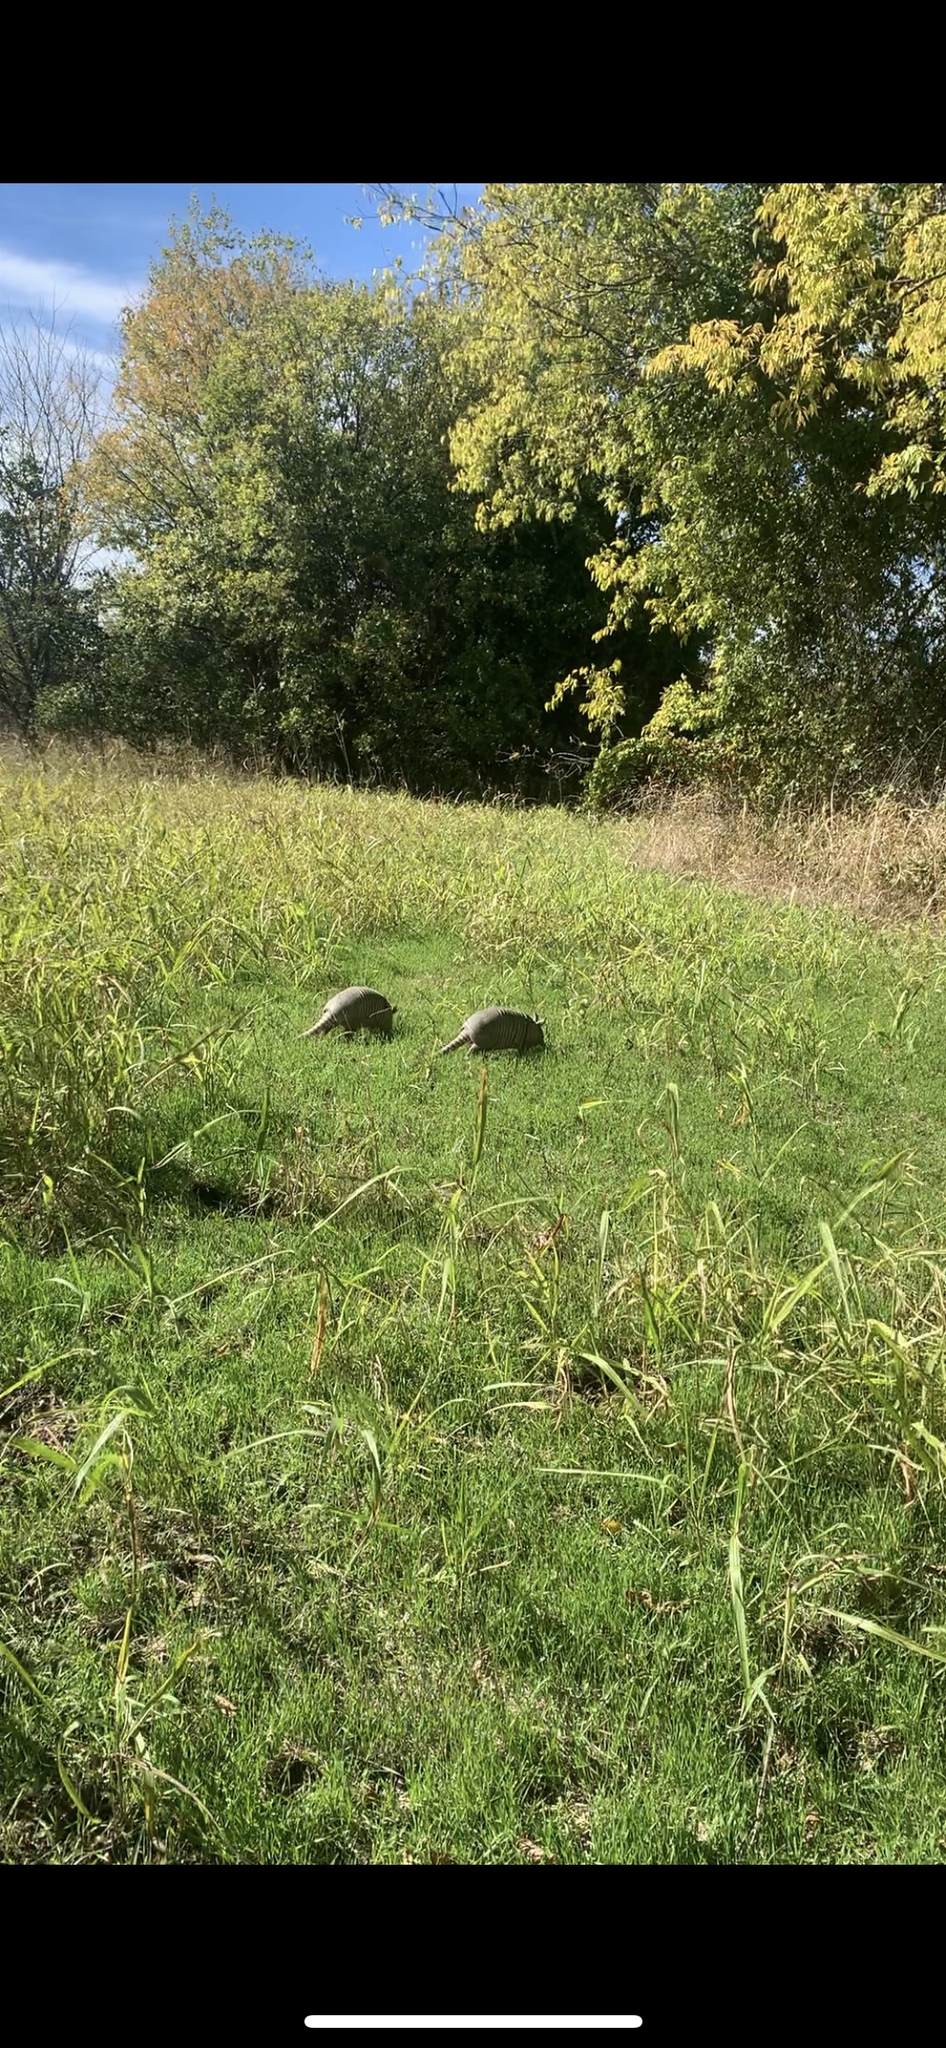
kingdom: Animalia
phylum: Chordata
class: Mammalia
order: Cingulata
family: Dasypodidae
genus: Dasypus
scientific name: Dasypus novemcinctus
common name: Nine-banded armadillo
